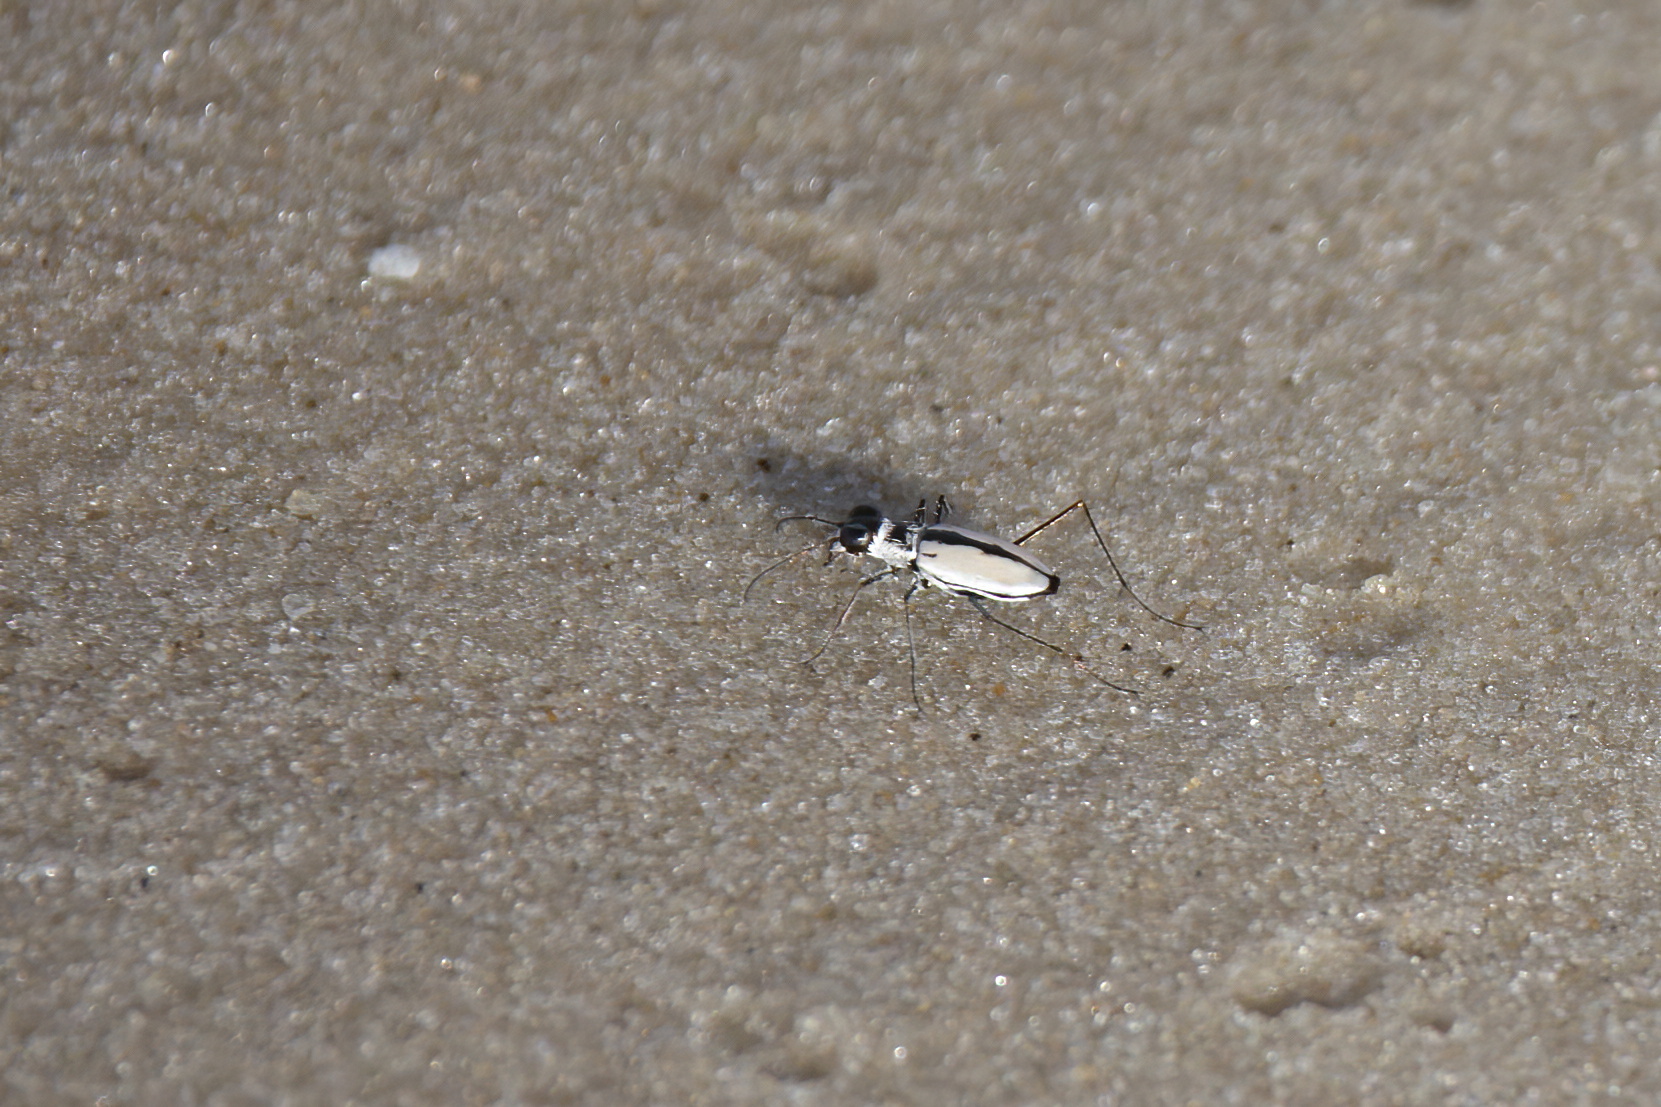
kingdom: Animalia
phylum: Arthropoda
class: Insecta
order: Coleoptera
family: Carabidae
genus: Habroscelimorpha
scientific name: Habroscelimorpha dorsalis
